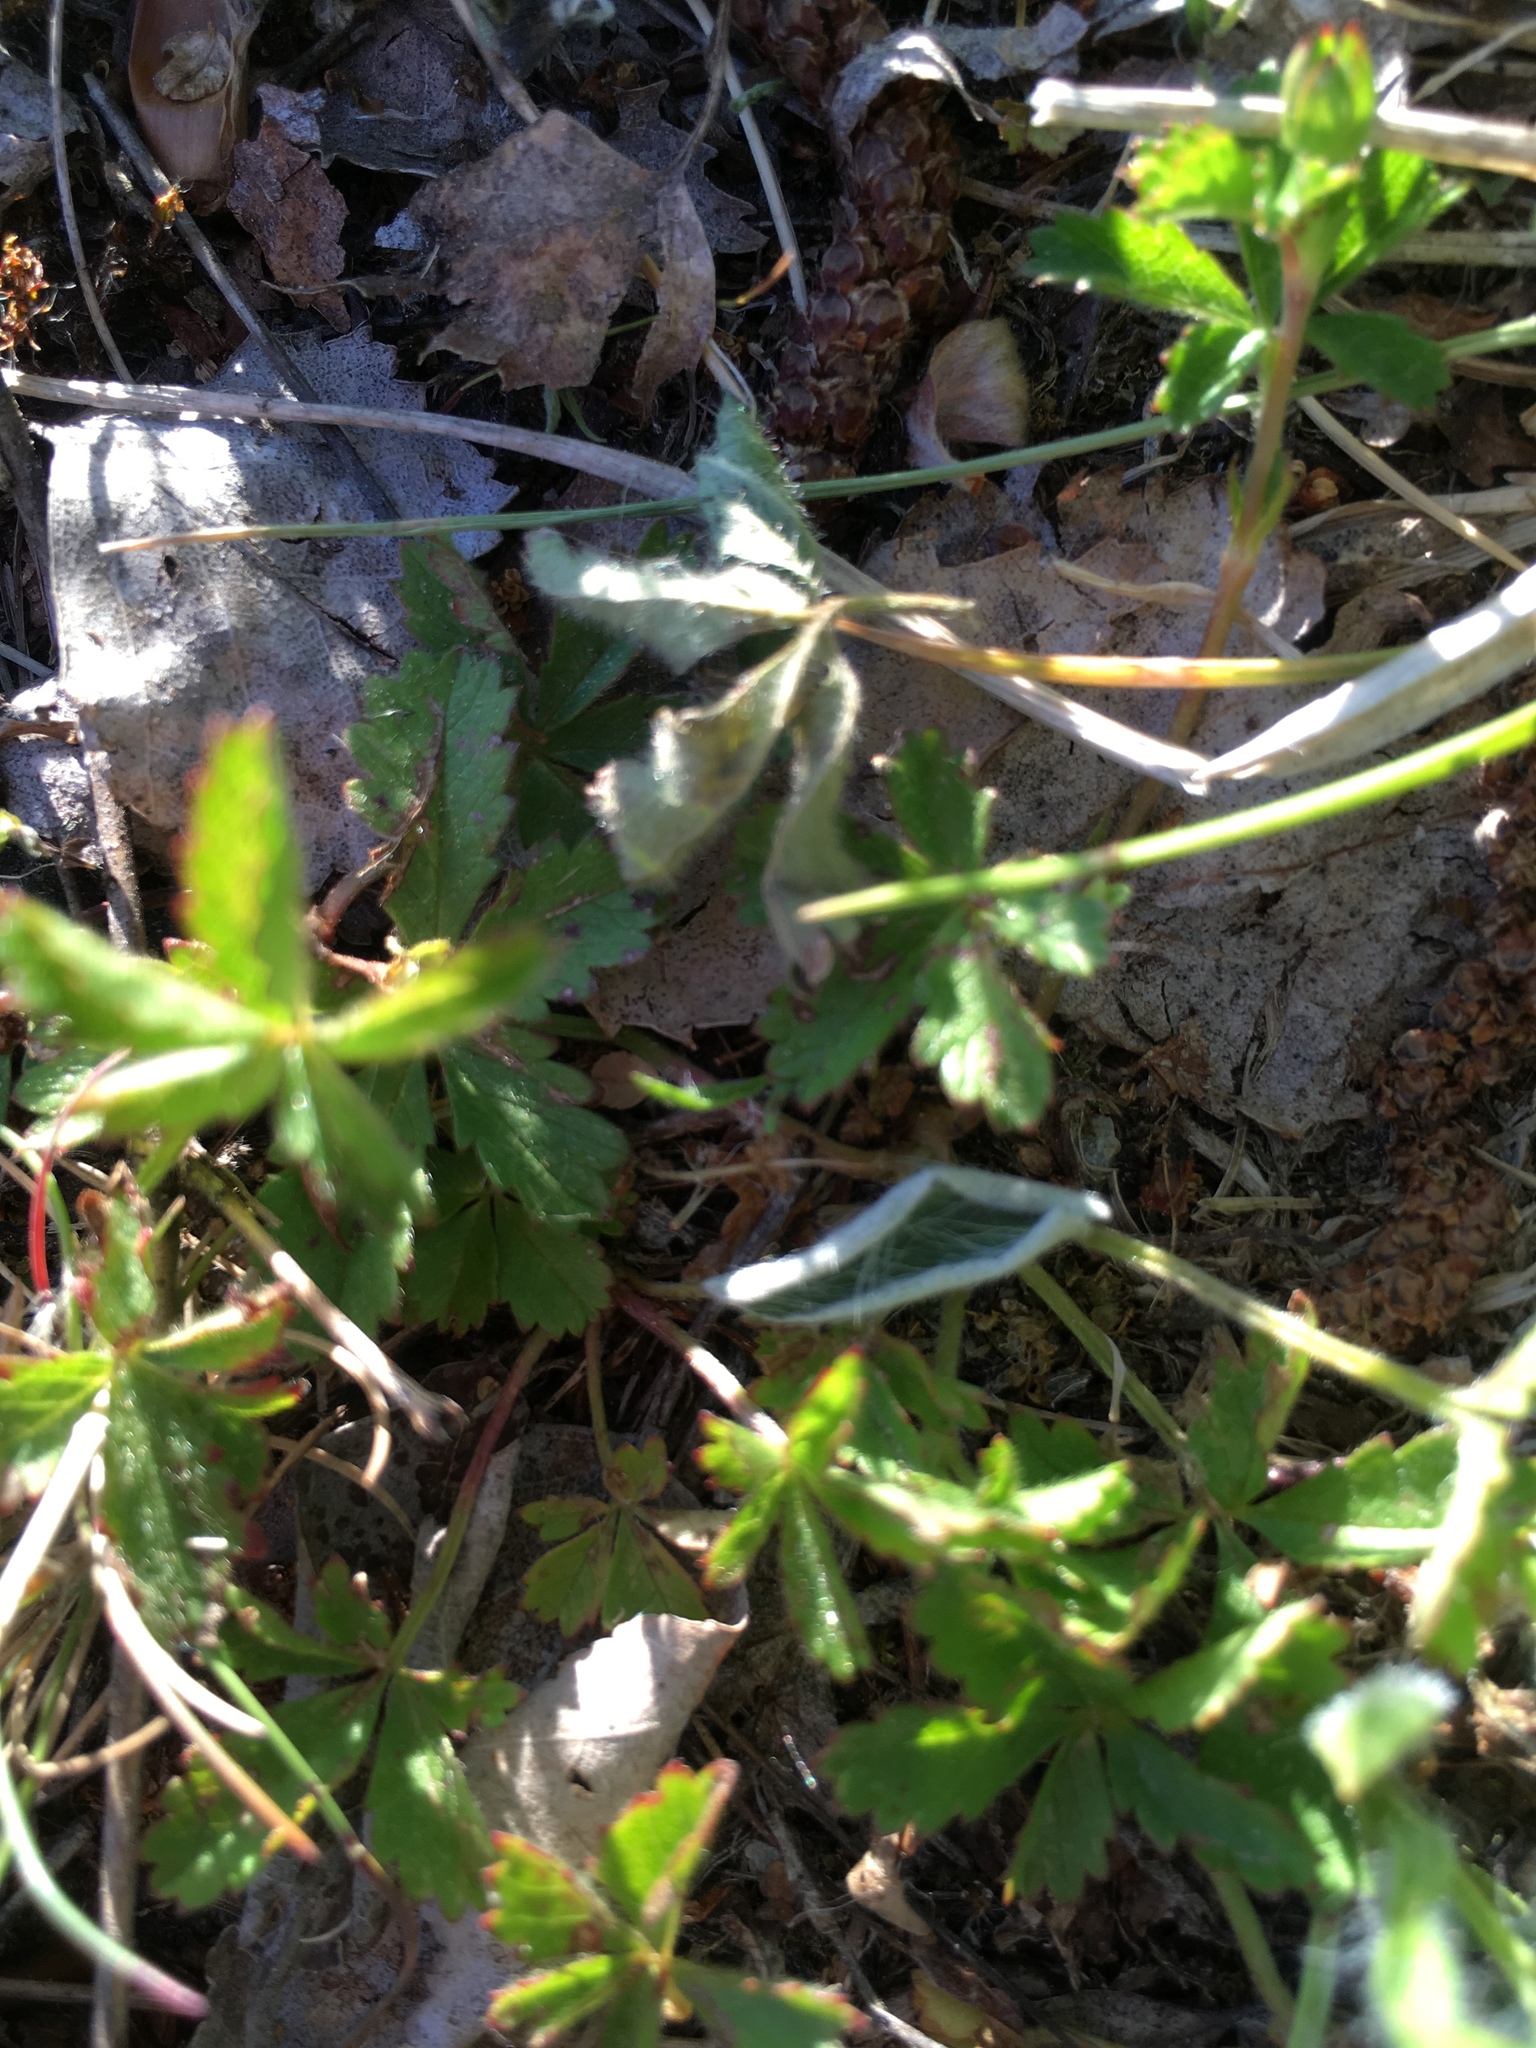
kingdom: Plantae
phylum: Tracheophyta
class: Magnoliopsida
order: Rosales
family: Rosaceae
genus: Potentilla
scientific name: Potentilla reptans
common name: Creeping cinquefoil
